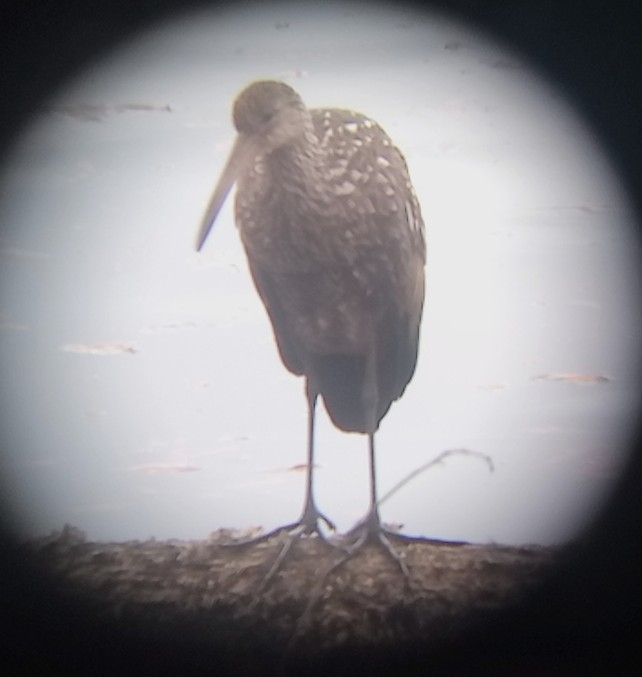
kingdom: Animalia
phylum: Chordata
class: Aves
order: Gruiformes
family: Aramidae
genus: Aramus
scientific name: Aramus guarauna
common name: Limpkin
